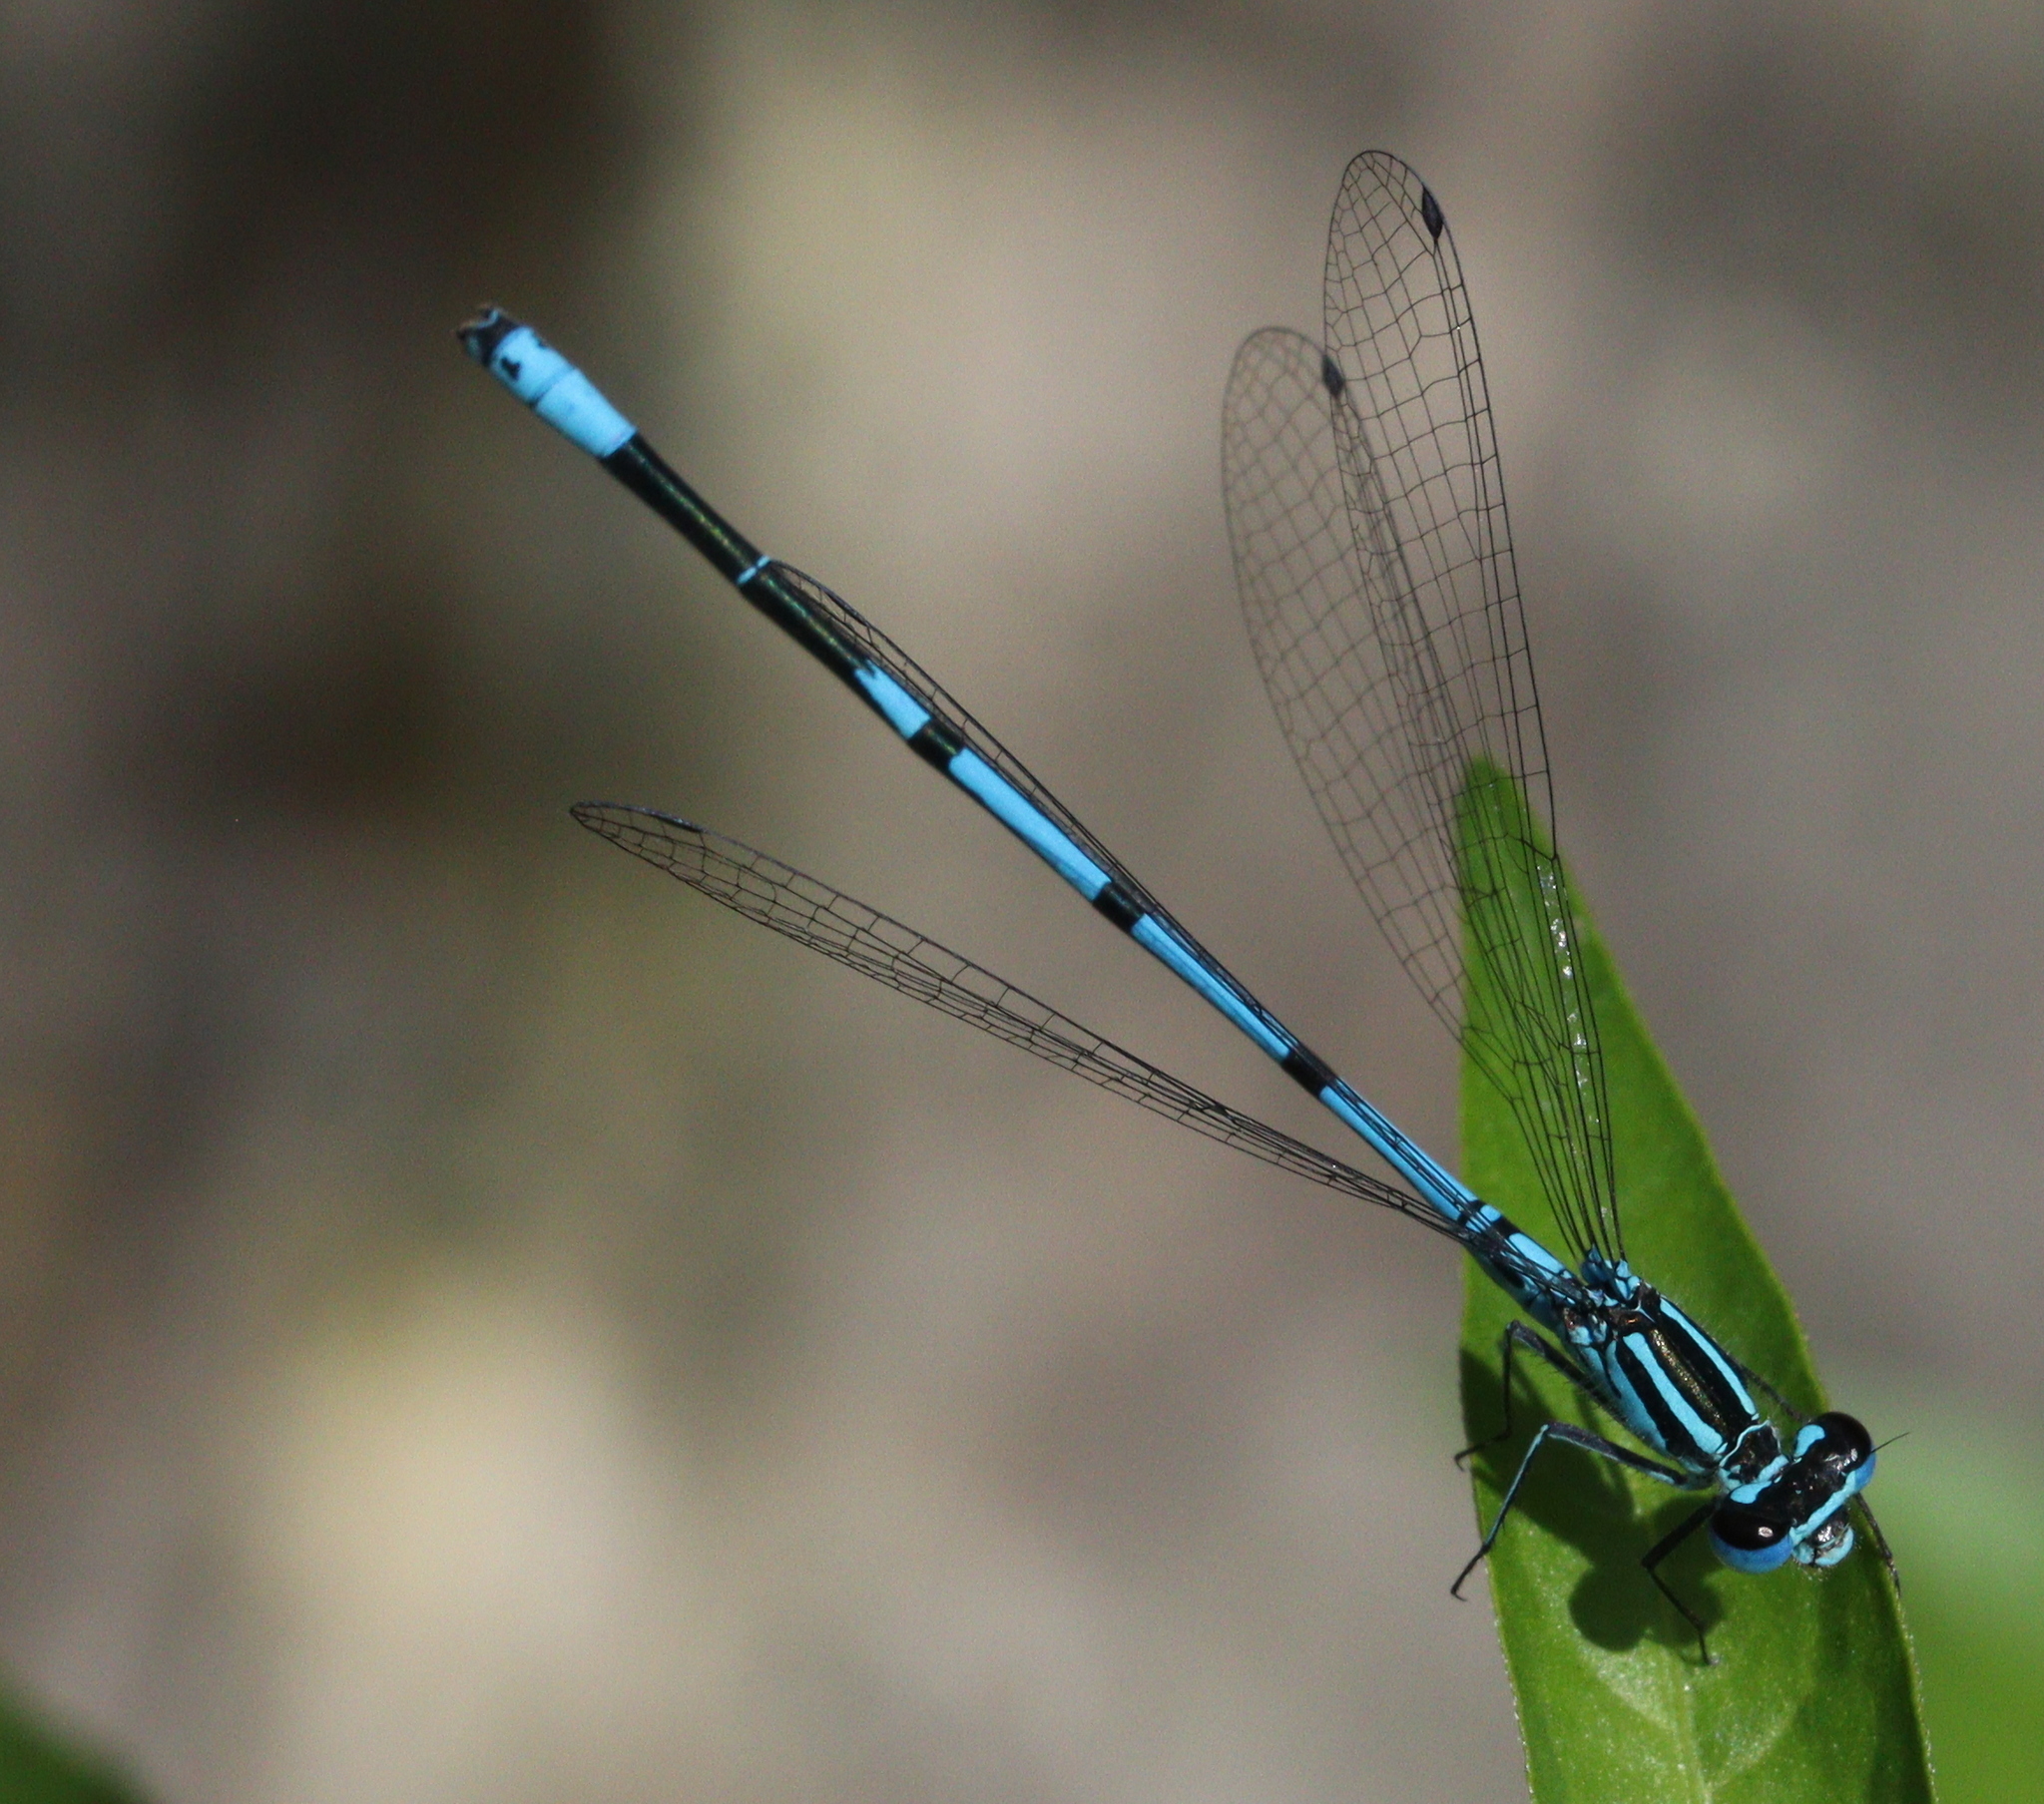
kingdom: Animalia
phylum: Arthropoda
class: Insecta
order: Odonata
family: Coenagrionidae
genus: Coenagrion
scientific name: Coenagrion puella
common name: Azure damselfly
